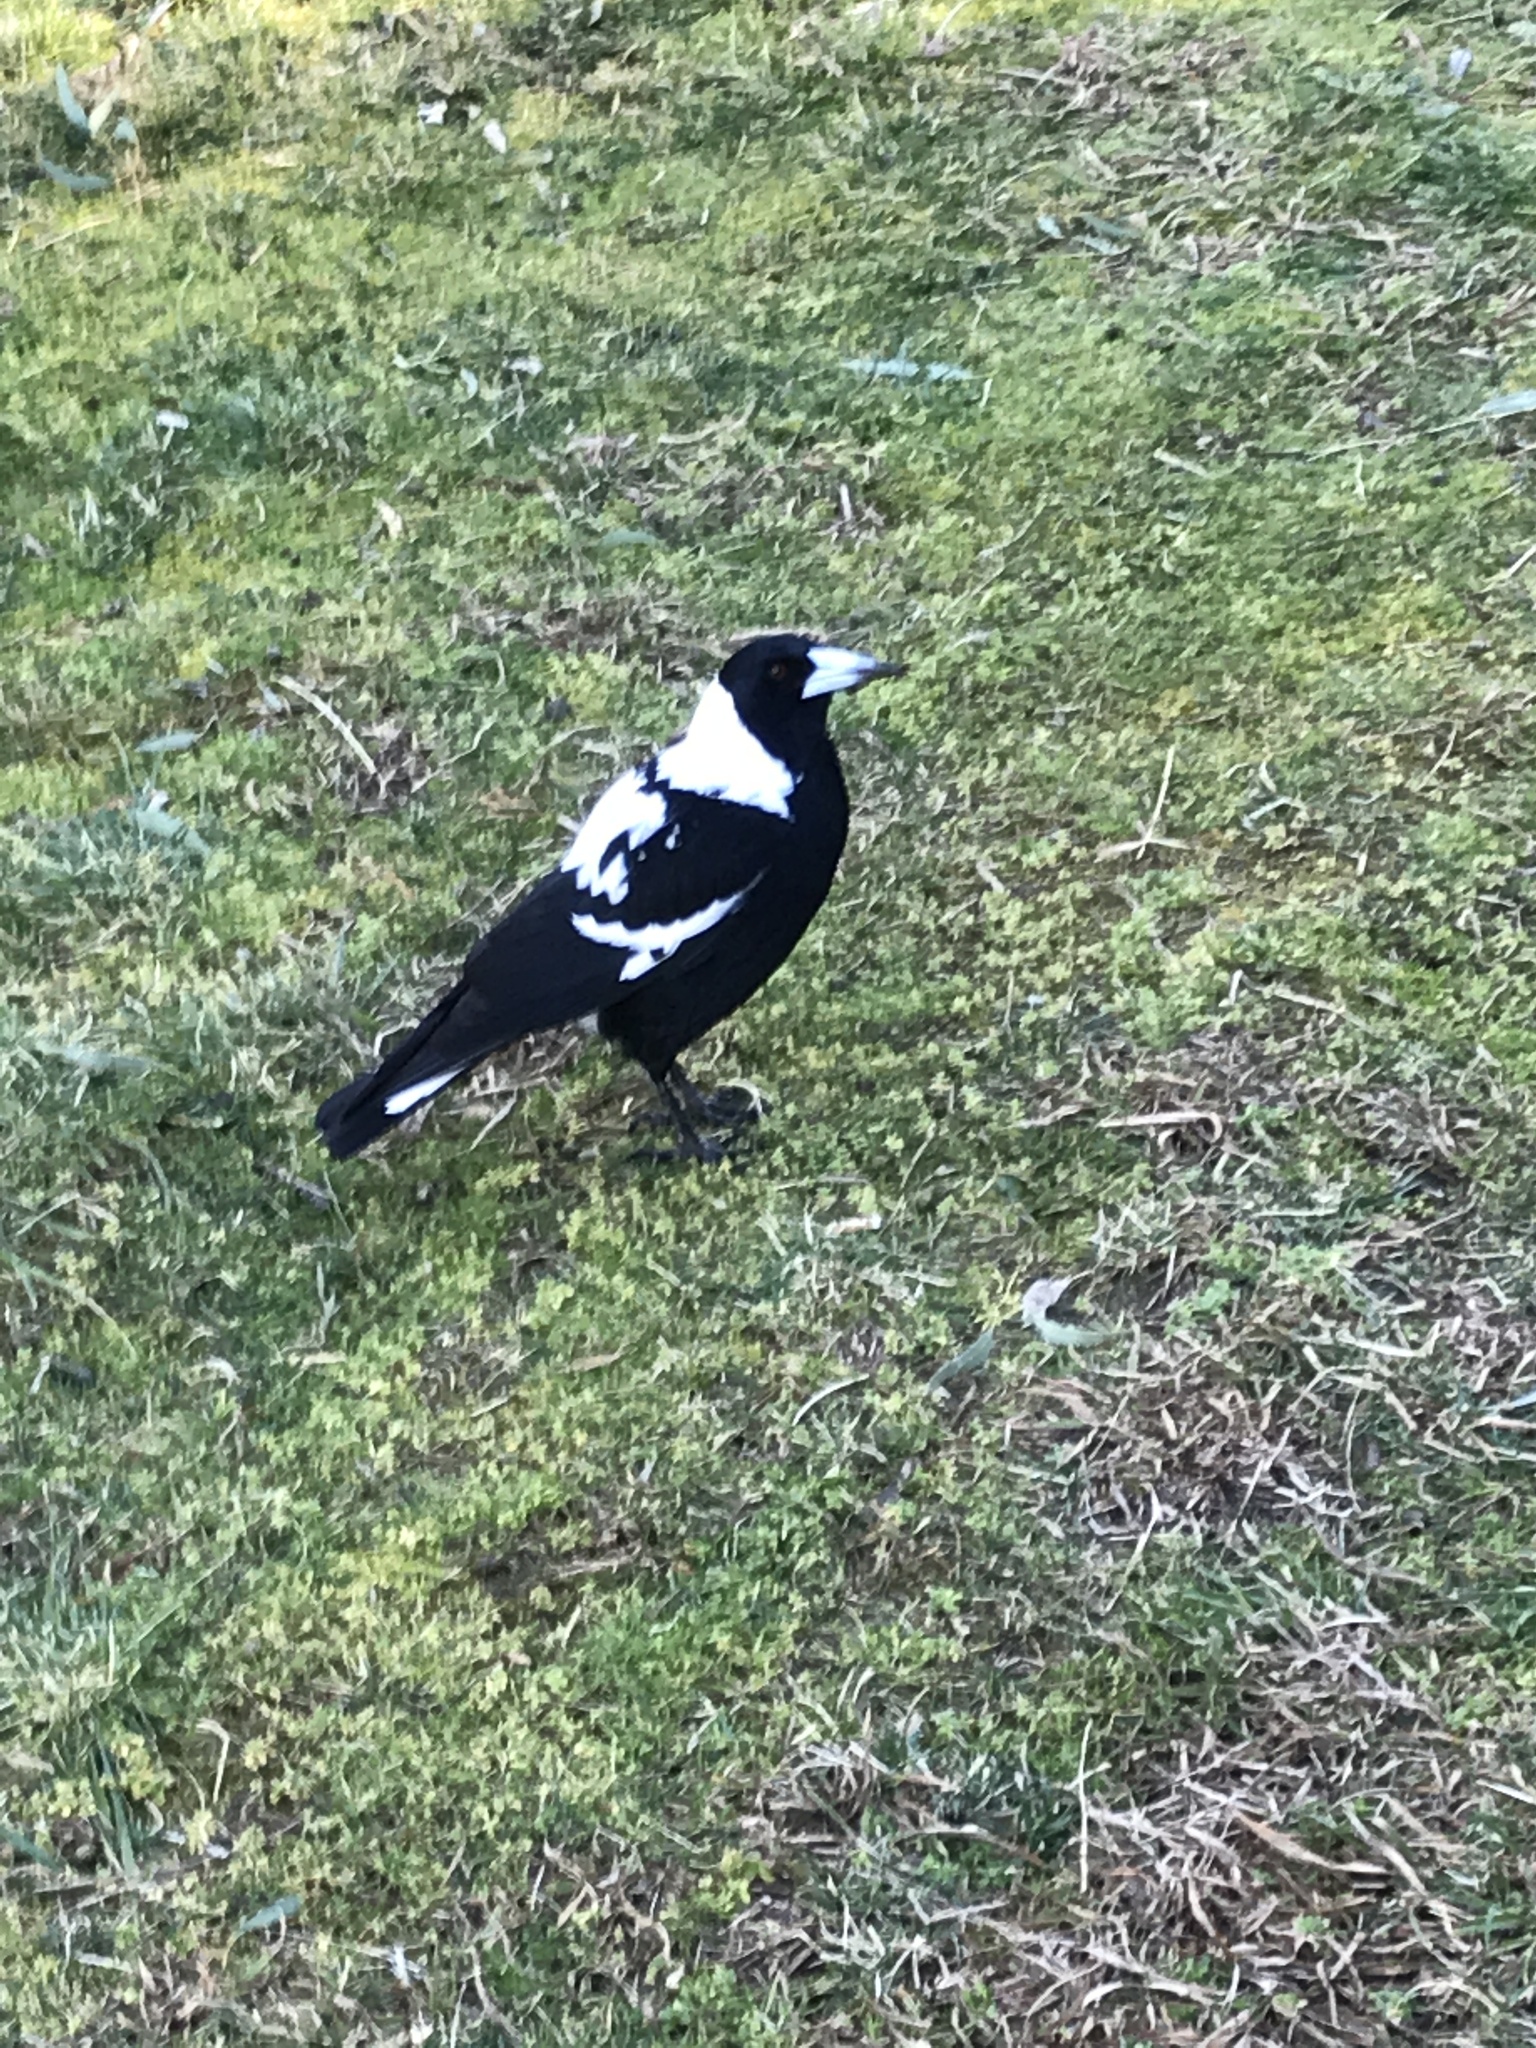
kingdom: Animalia
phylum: Chordata
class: Aves
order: Passeriformes
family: Cracticidae
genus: Gymnorhina
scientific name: Gymnorhina tibicen
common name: Australian magpie
